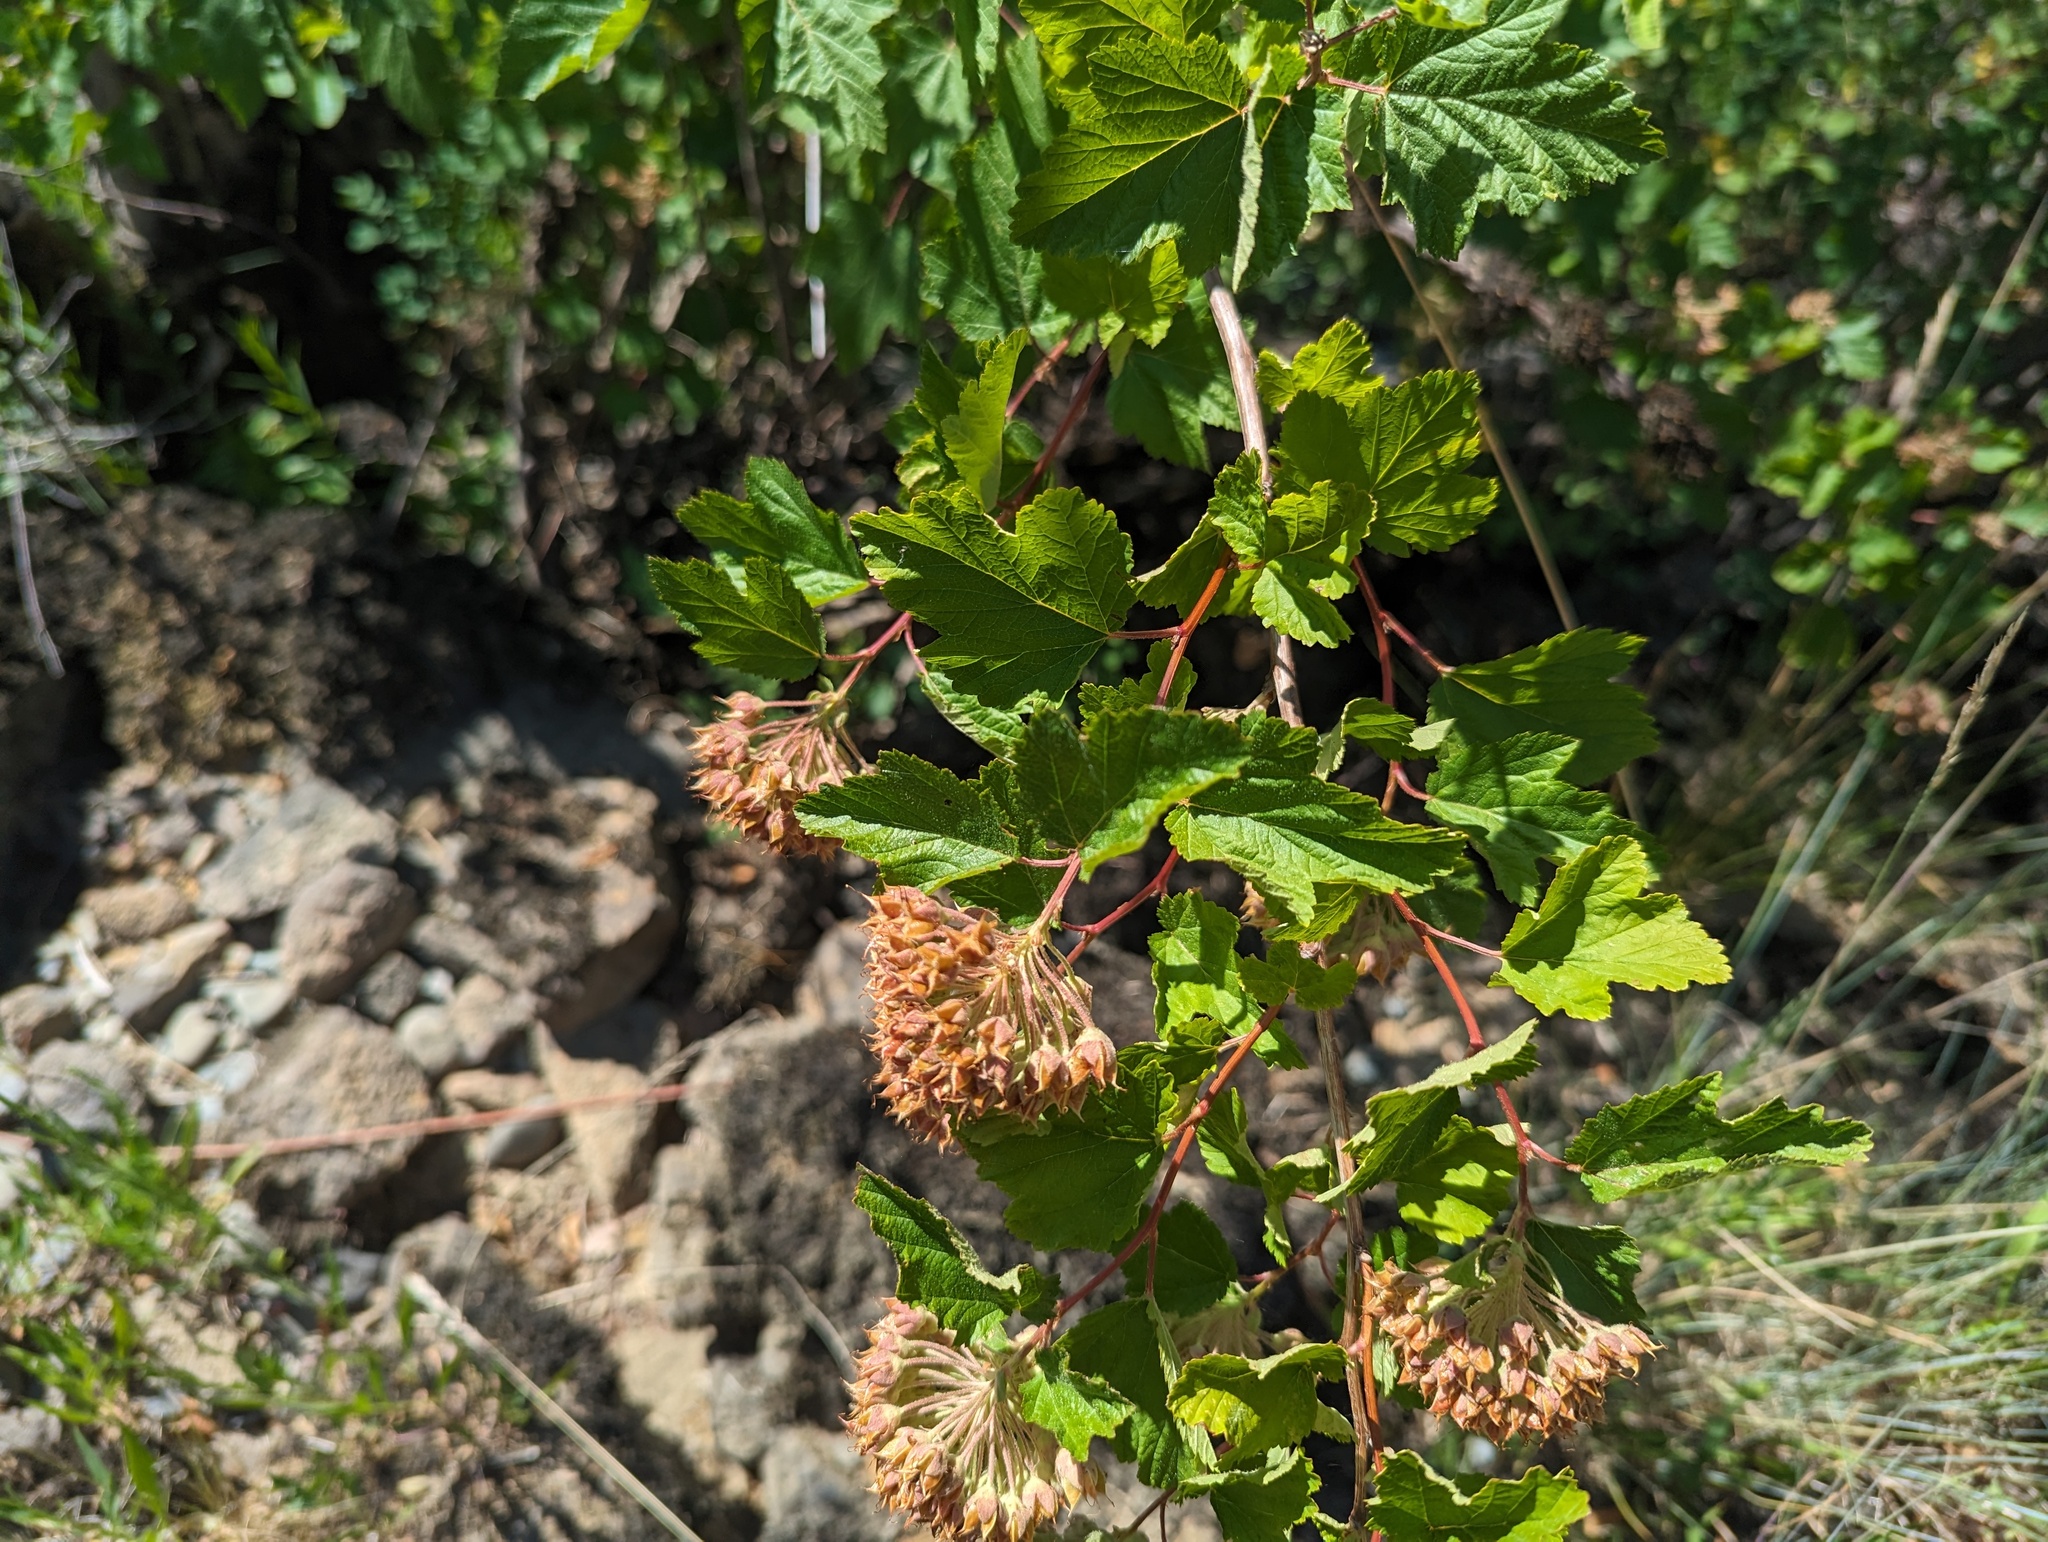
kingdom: Plantae
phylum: Tracheophyta
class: Magnoliopsida
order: Rosales
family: Rosaceae
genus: Physocarpus
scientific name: Physocarpus capitatus
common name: Pacific ninebark
